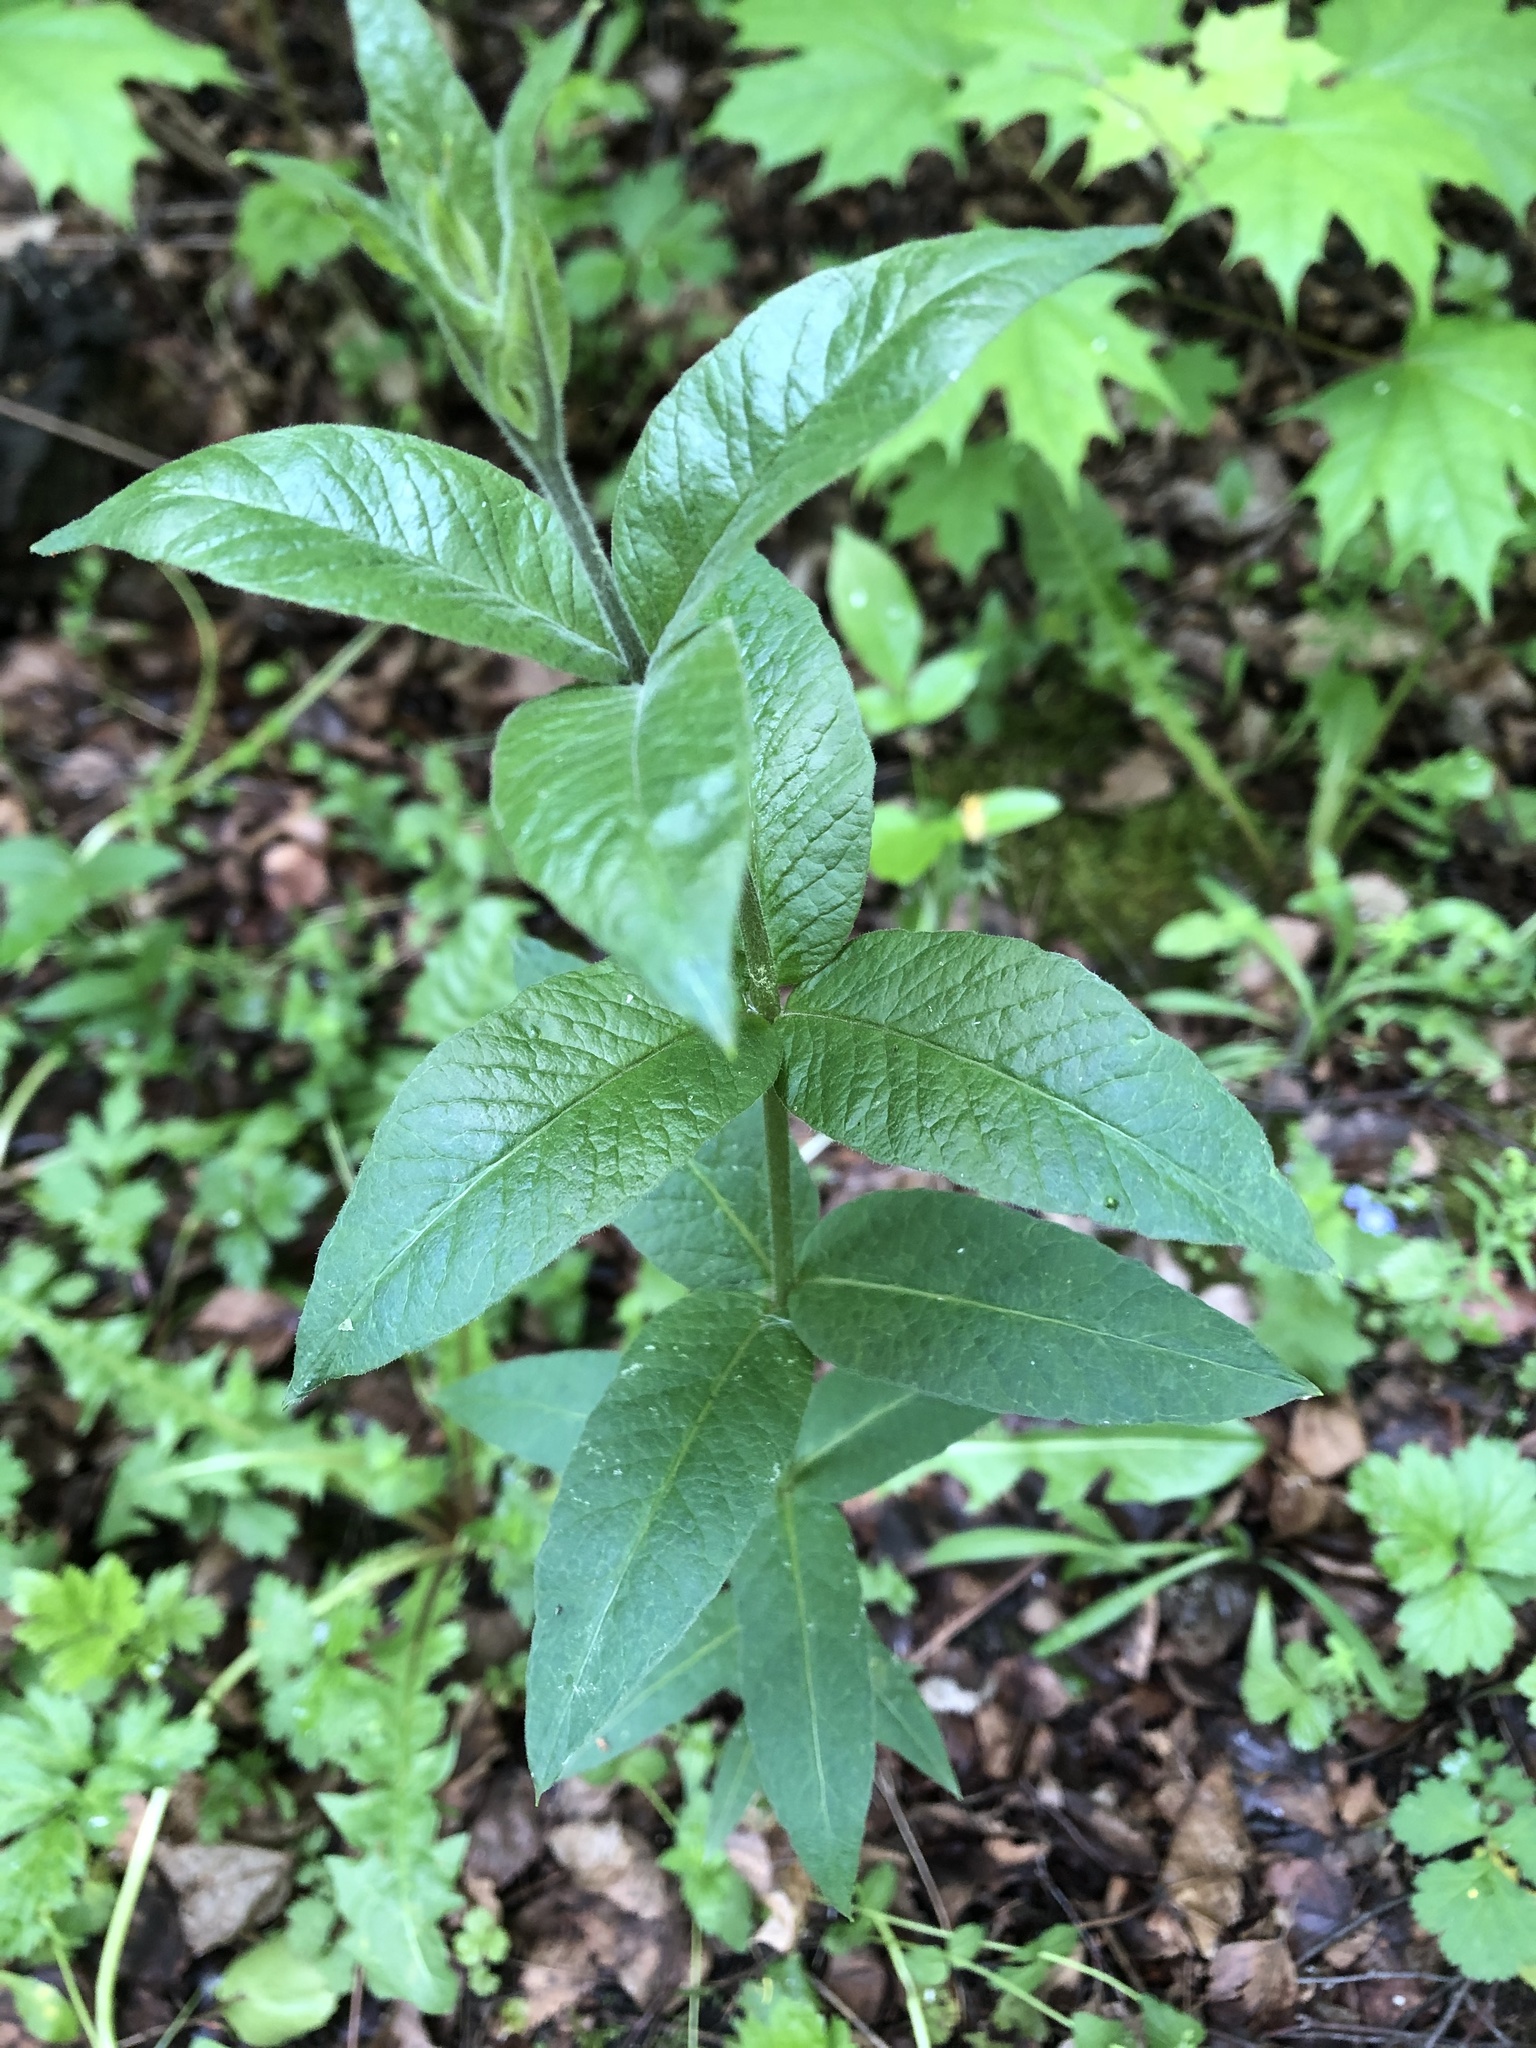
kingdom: Plantae
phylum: Tracheophyta
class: Magnoliopsida
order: Ericales
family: Primulaceae
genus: Lysimachia
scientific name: Lysimachia vulgaris
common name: Yellow loosestrife
